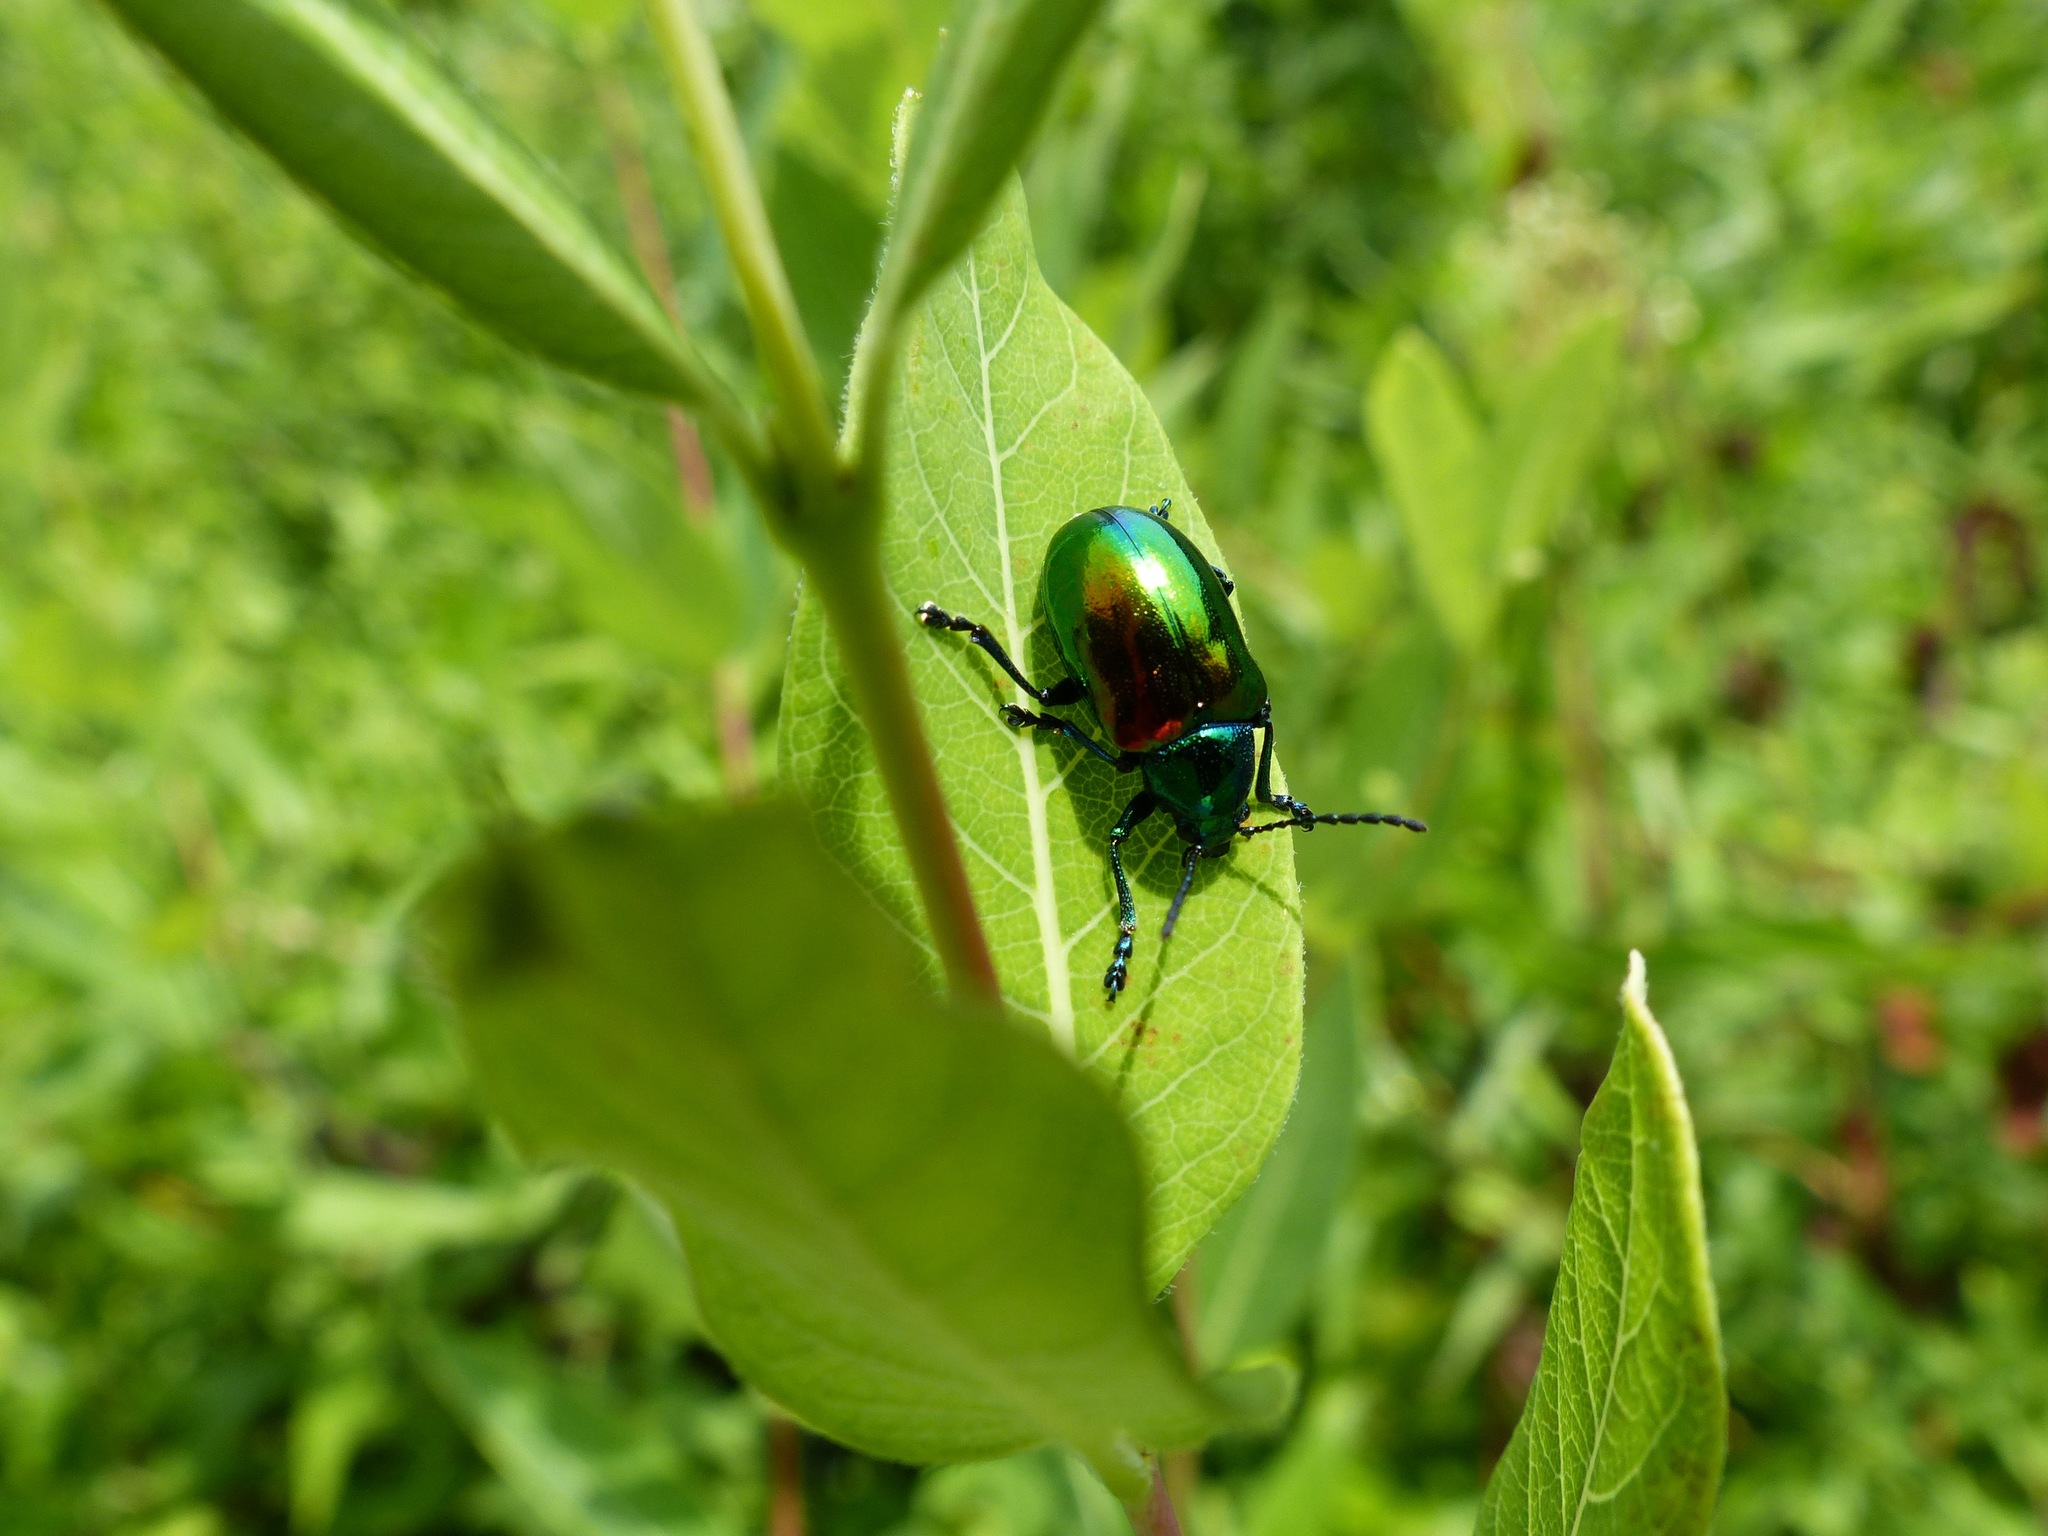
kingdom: Animalia
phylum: Arthropoda
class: Insecta
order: Coleoptera
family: Chrysomelidae
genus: Chrysochus
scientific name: Chrysochus auratus
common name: Dogbane leaf beetle
